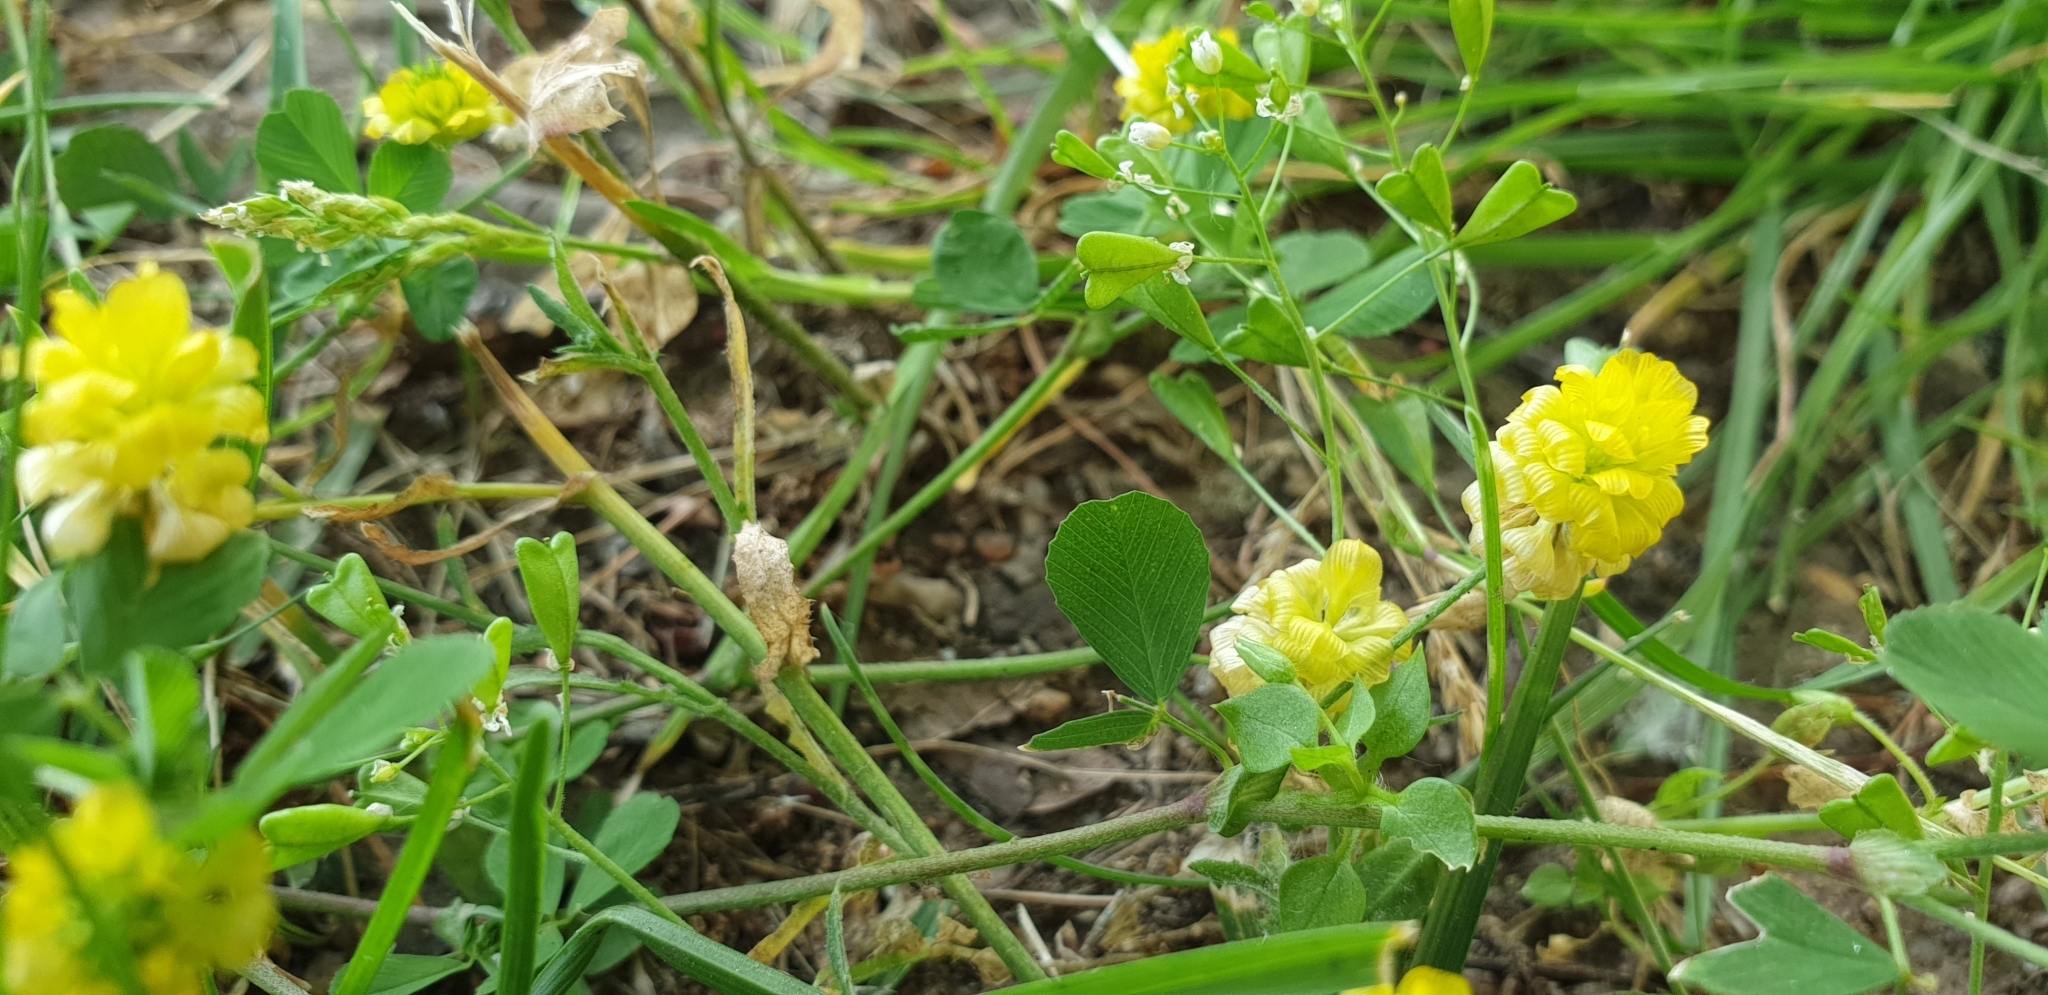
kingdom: Plantae
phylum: Tracheophyta
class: Magnoliopsida
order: Fabales
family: Fabaceae
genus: Trifolium
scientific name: Trifolium campestre
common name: Field clover
